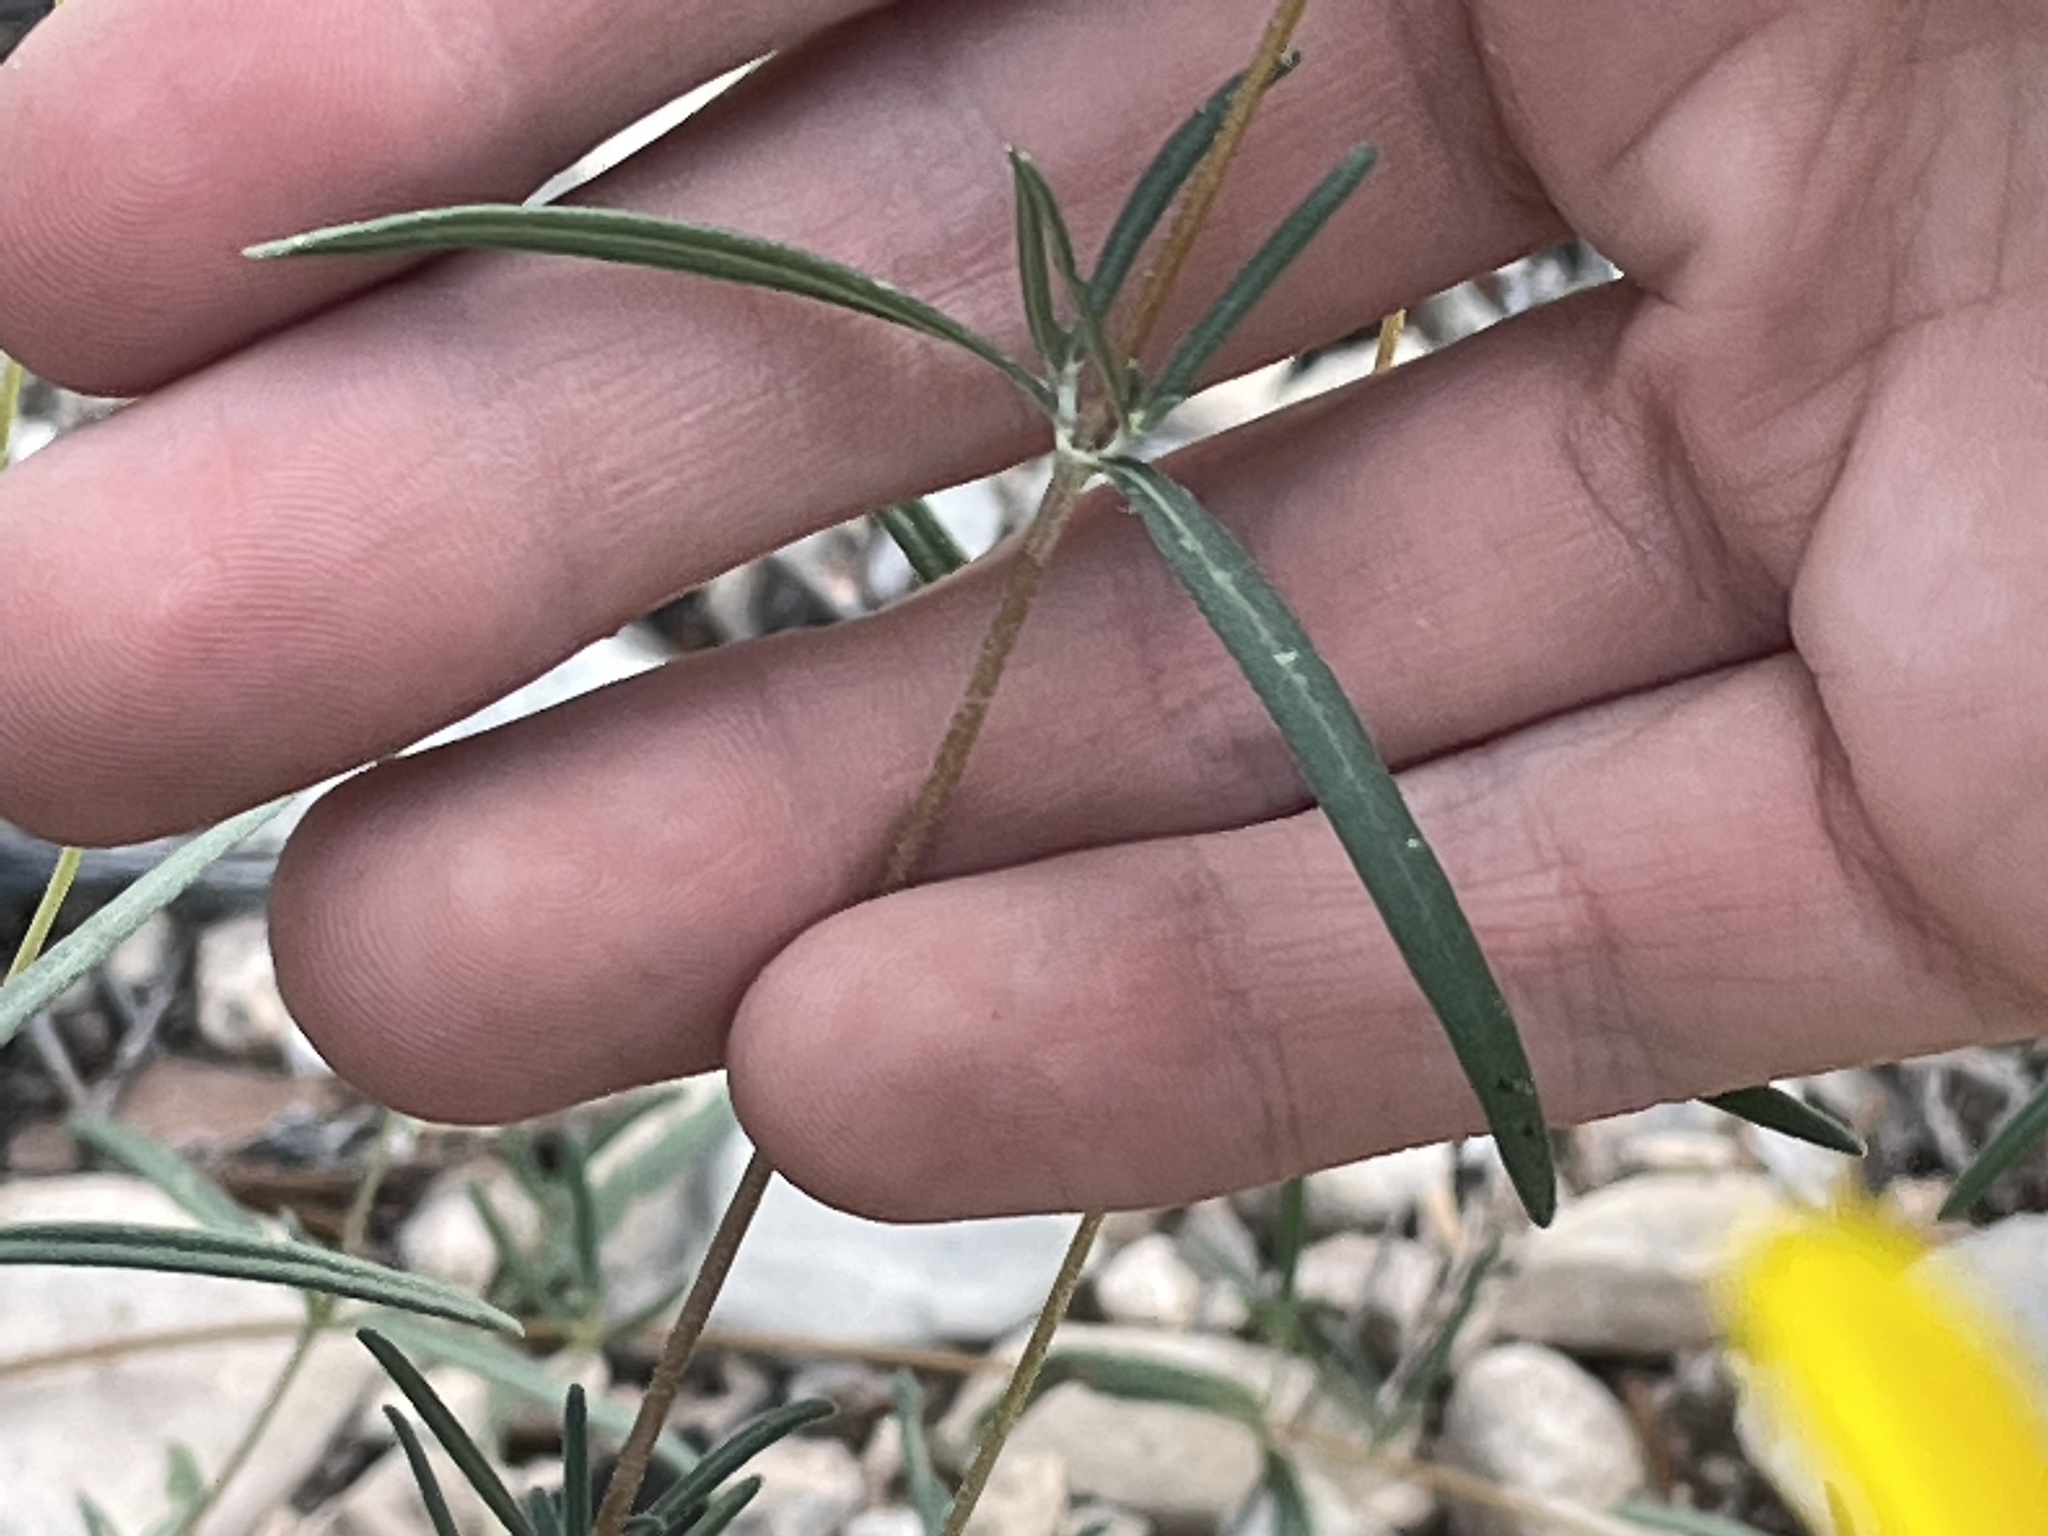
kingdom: Plantae
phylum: Tracheophyta
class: Magnoliopsida
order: Asterales
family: Asteraceae
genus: Heliomeris
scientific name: Heliomeris multiflora
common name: Showy goldeneye
